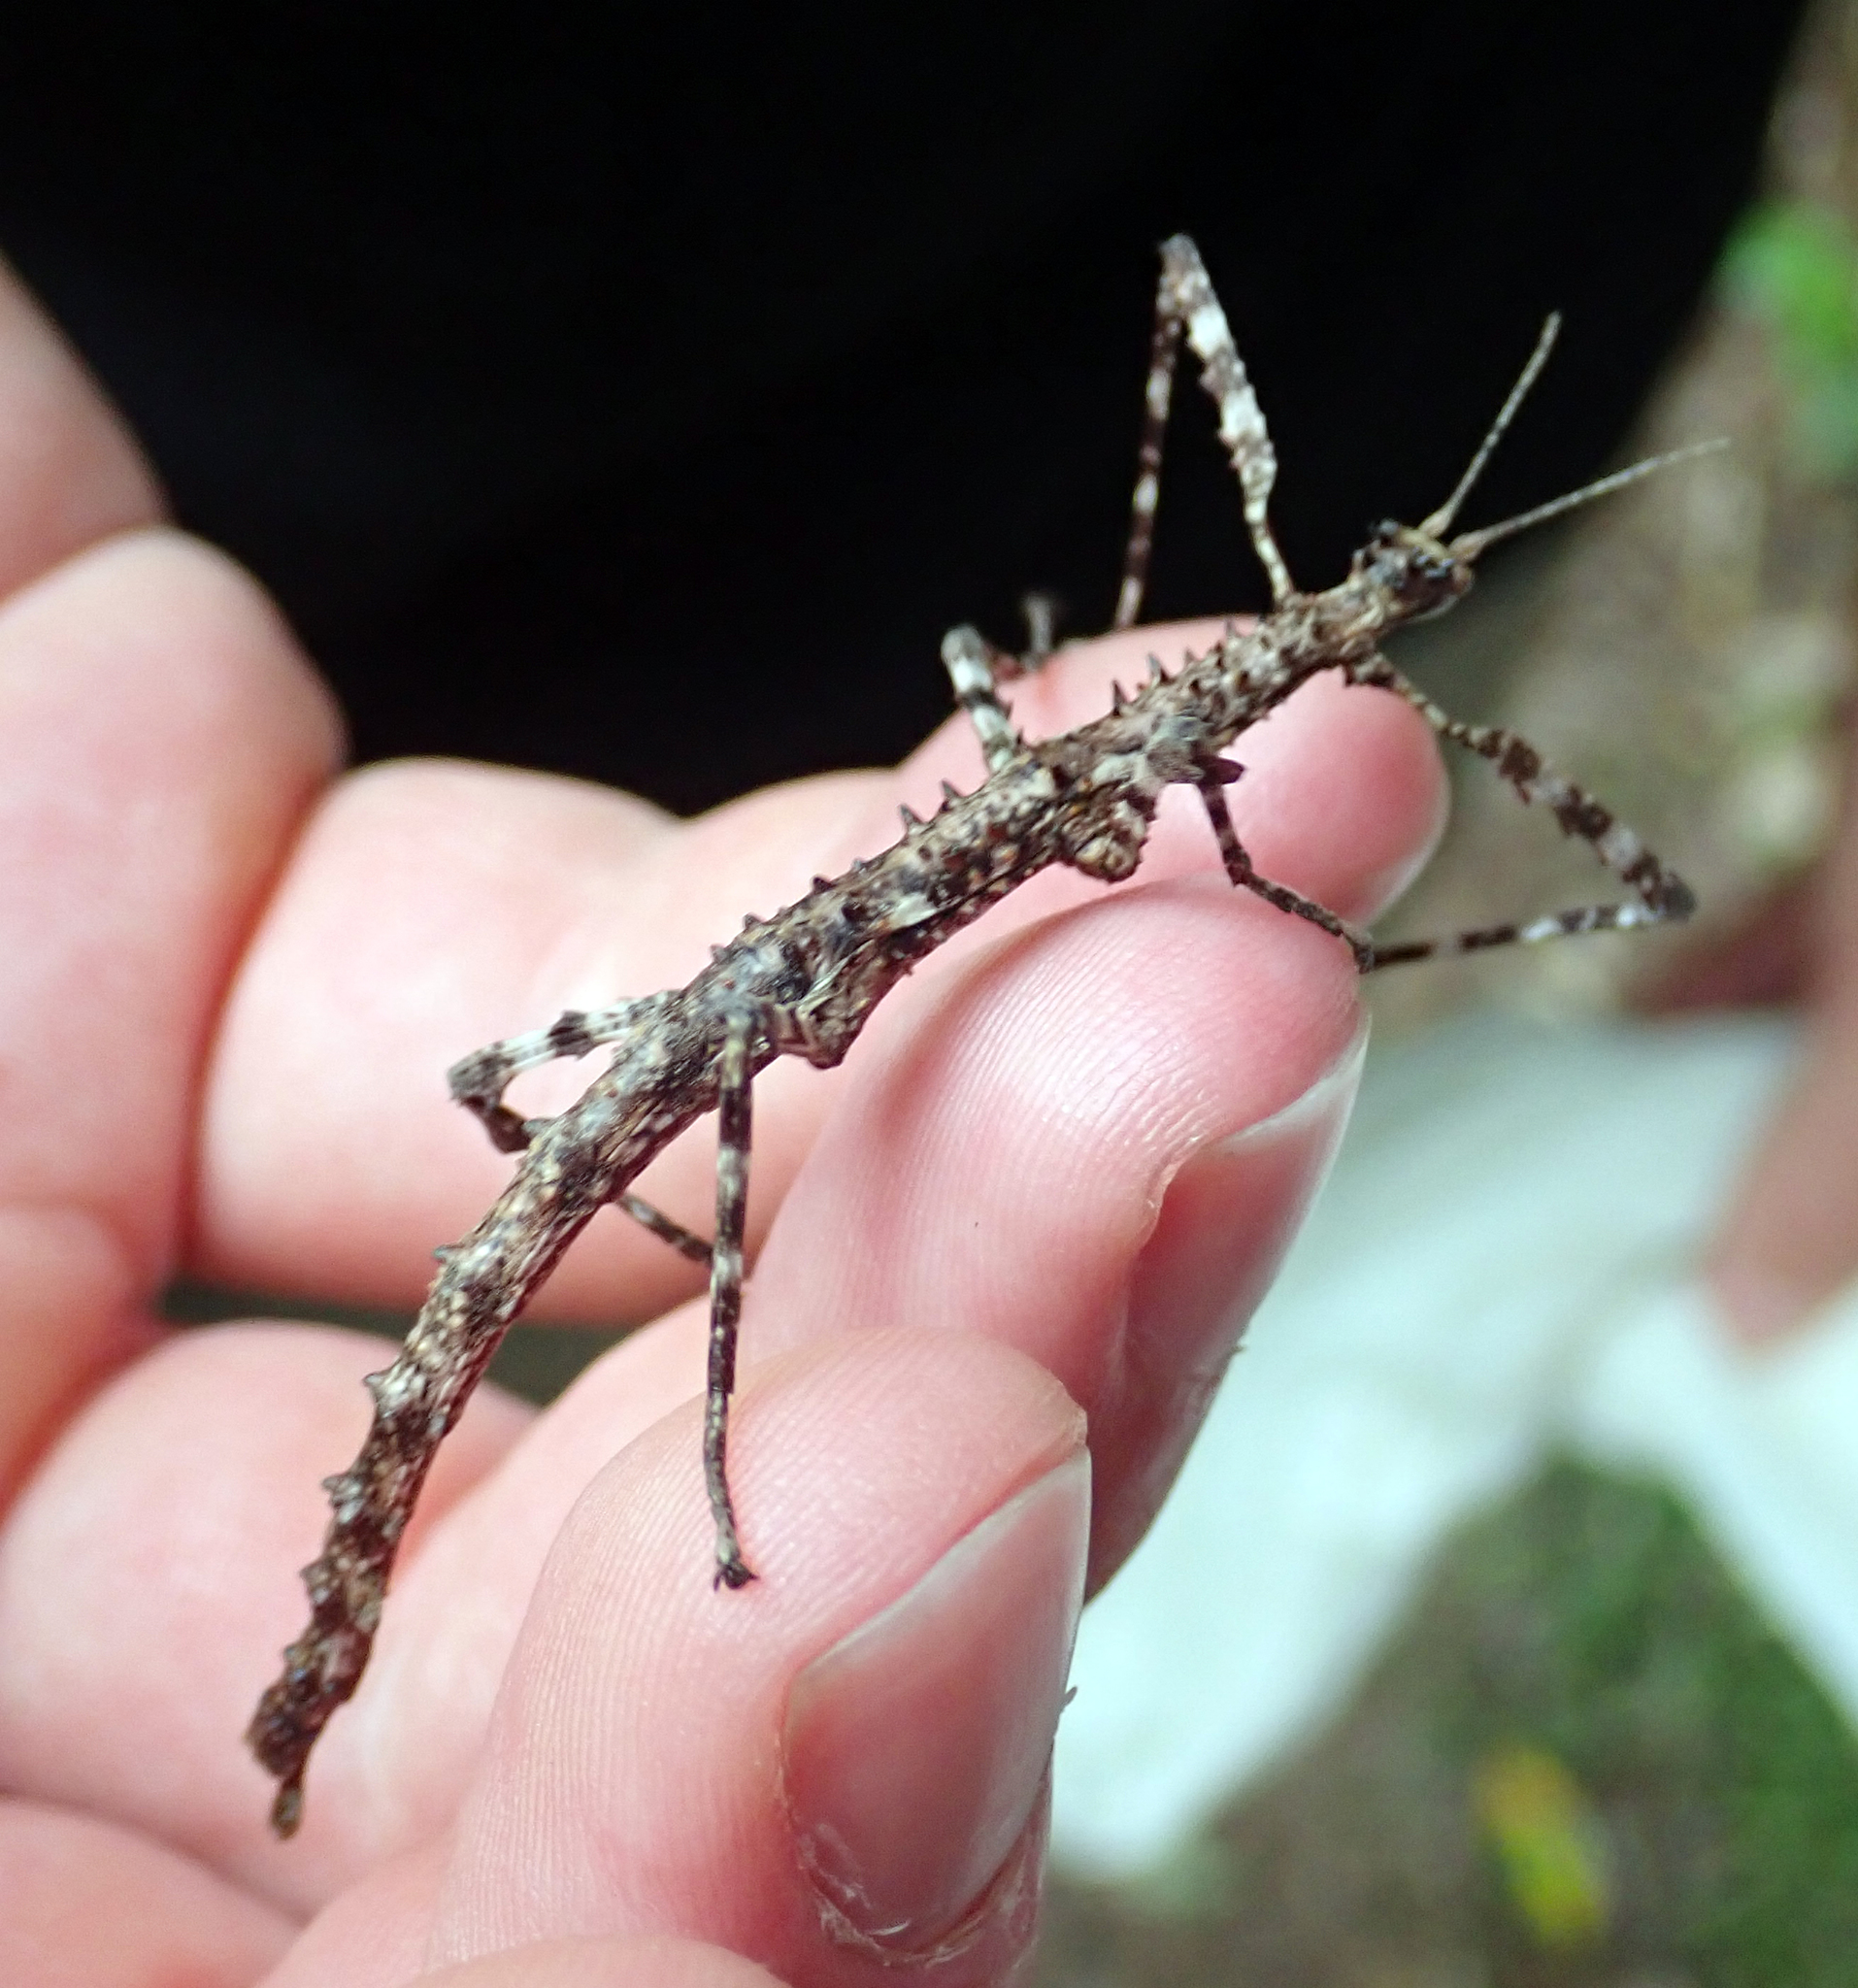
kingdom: Animalia
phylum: Arthropoda
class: Insecta
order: Phasmida
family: Phasmatidae
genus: Acanthoxyla
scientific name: Acanthoxyla prasina
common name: Black-spined stick insect
